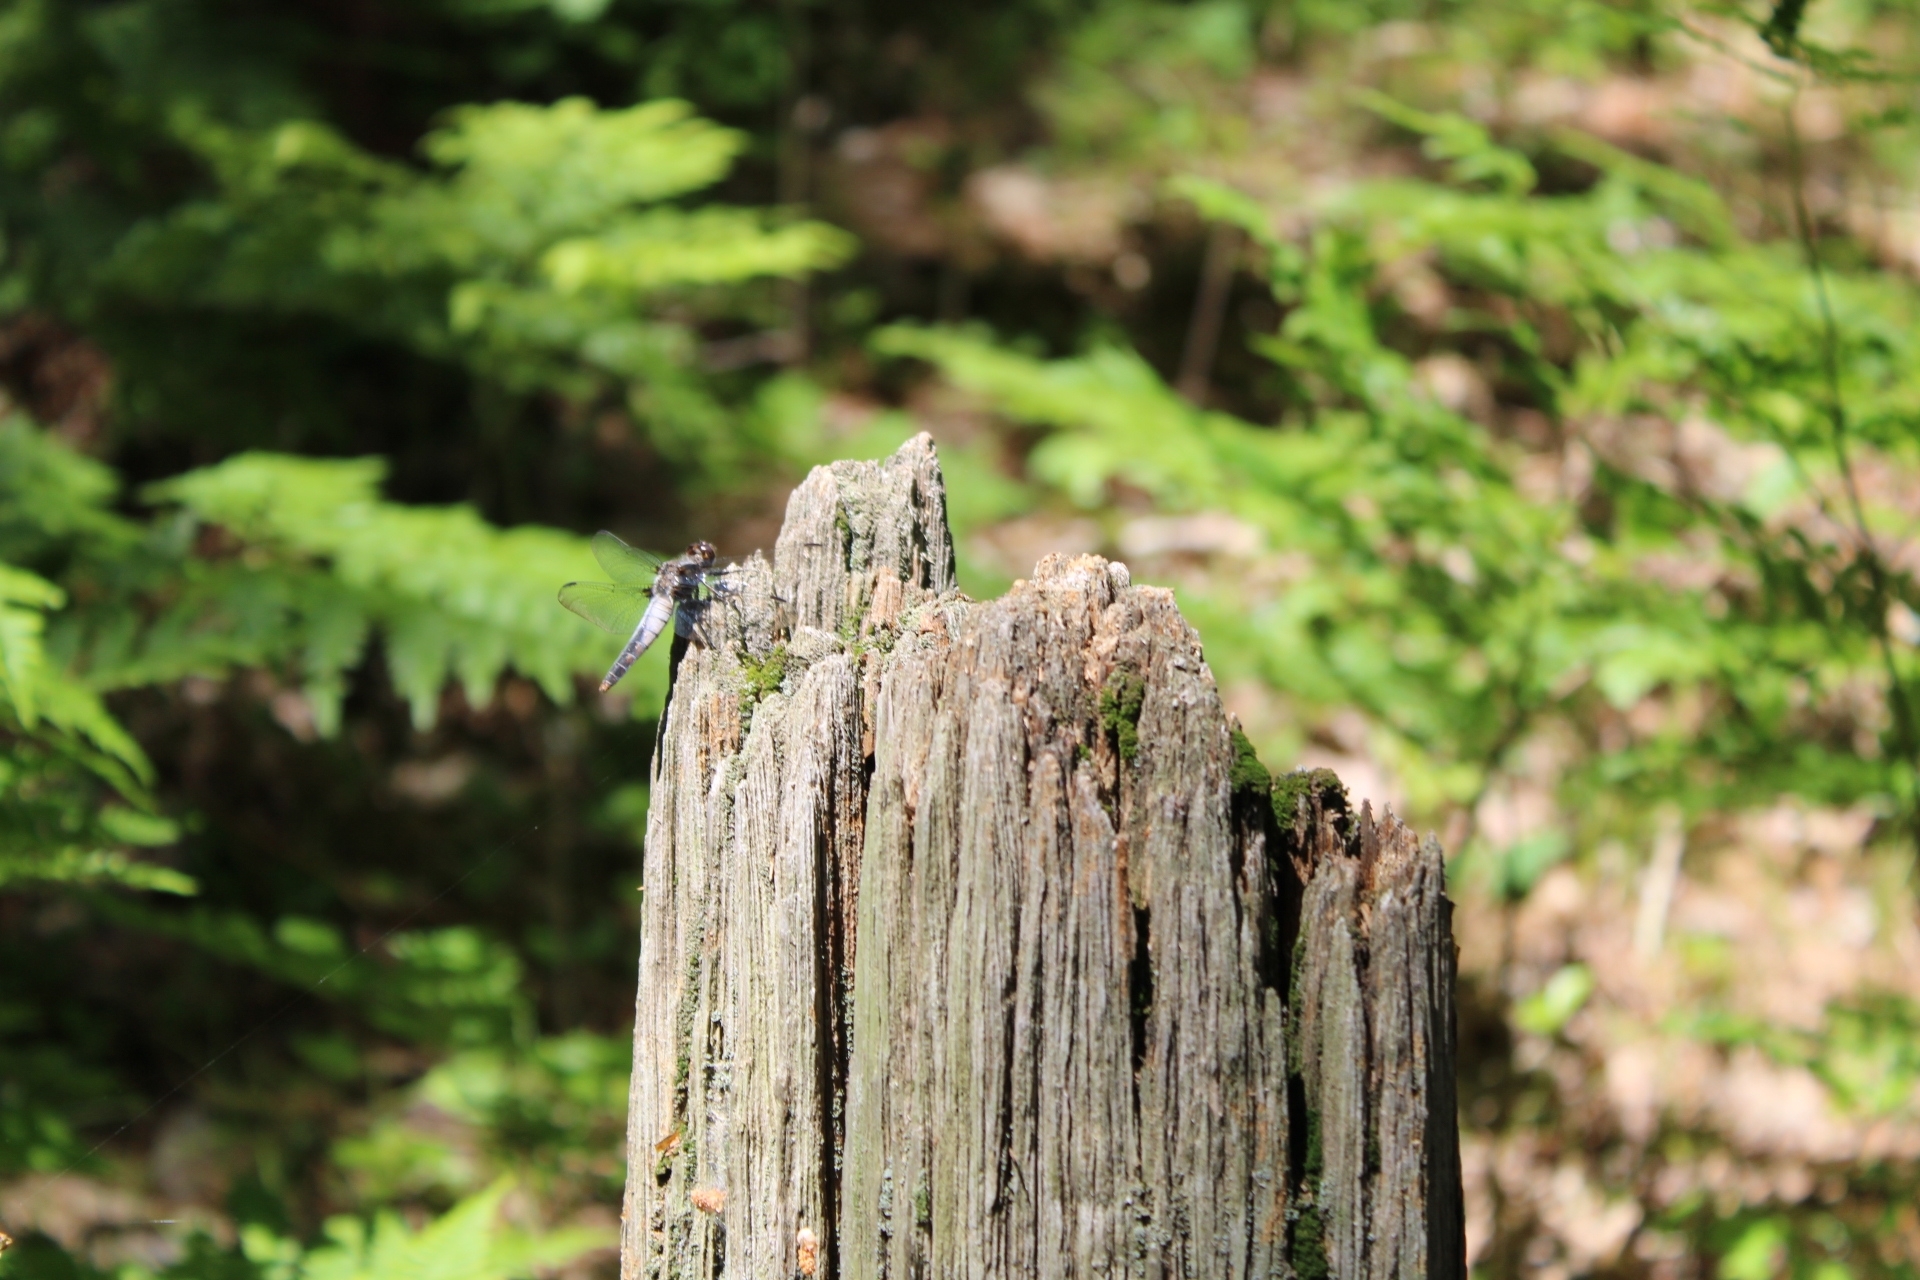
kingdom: Animalia
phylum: Arthropoda
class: Insecta
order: Odonata
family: Libellulidae
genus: Ladona
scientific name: Ladona julia
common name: Chalk-fronted corporal
